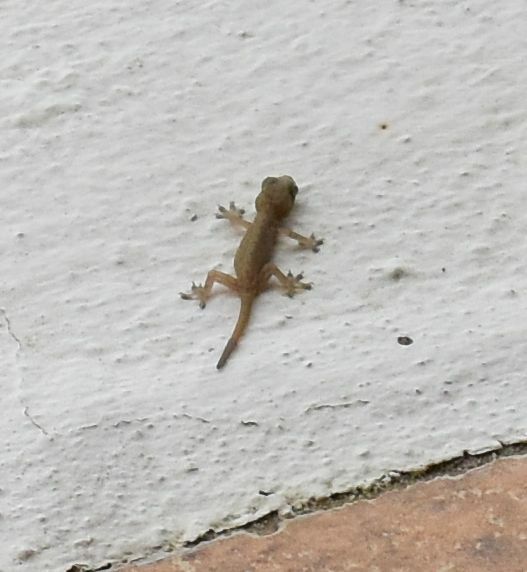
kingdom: Animalia
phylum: Chordata
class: Squamata
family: Gekkonidae
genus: Hemidactylus
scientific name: Hemidactylus frenatus
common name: Common house gecko
